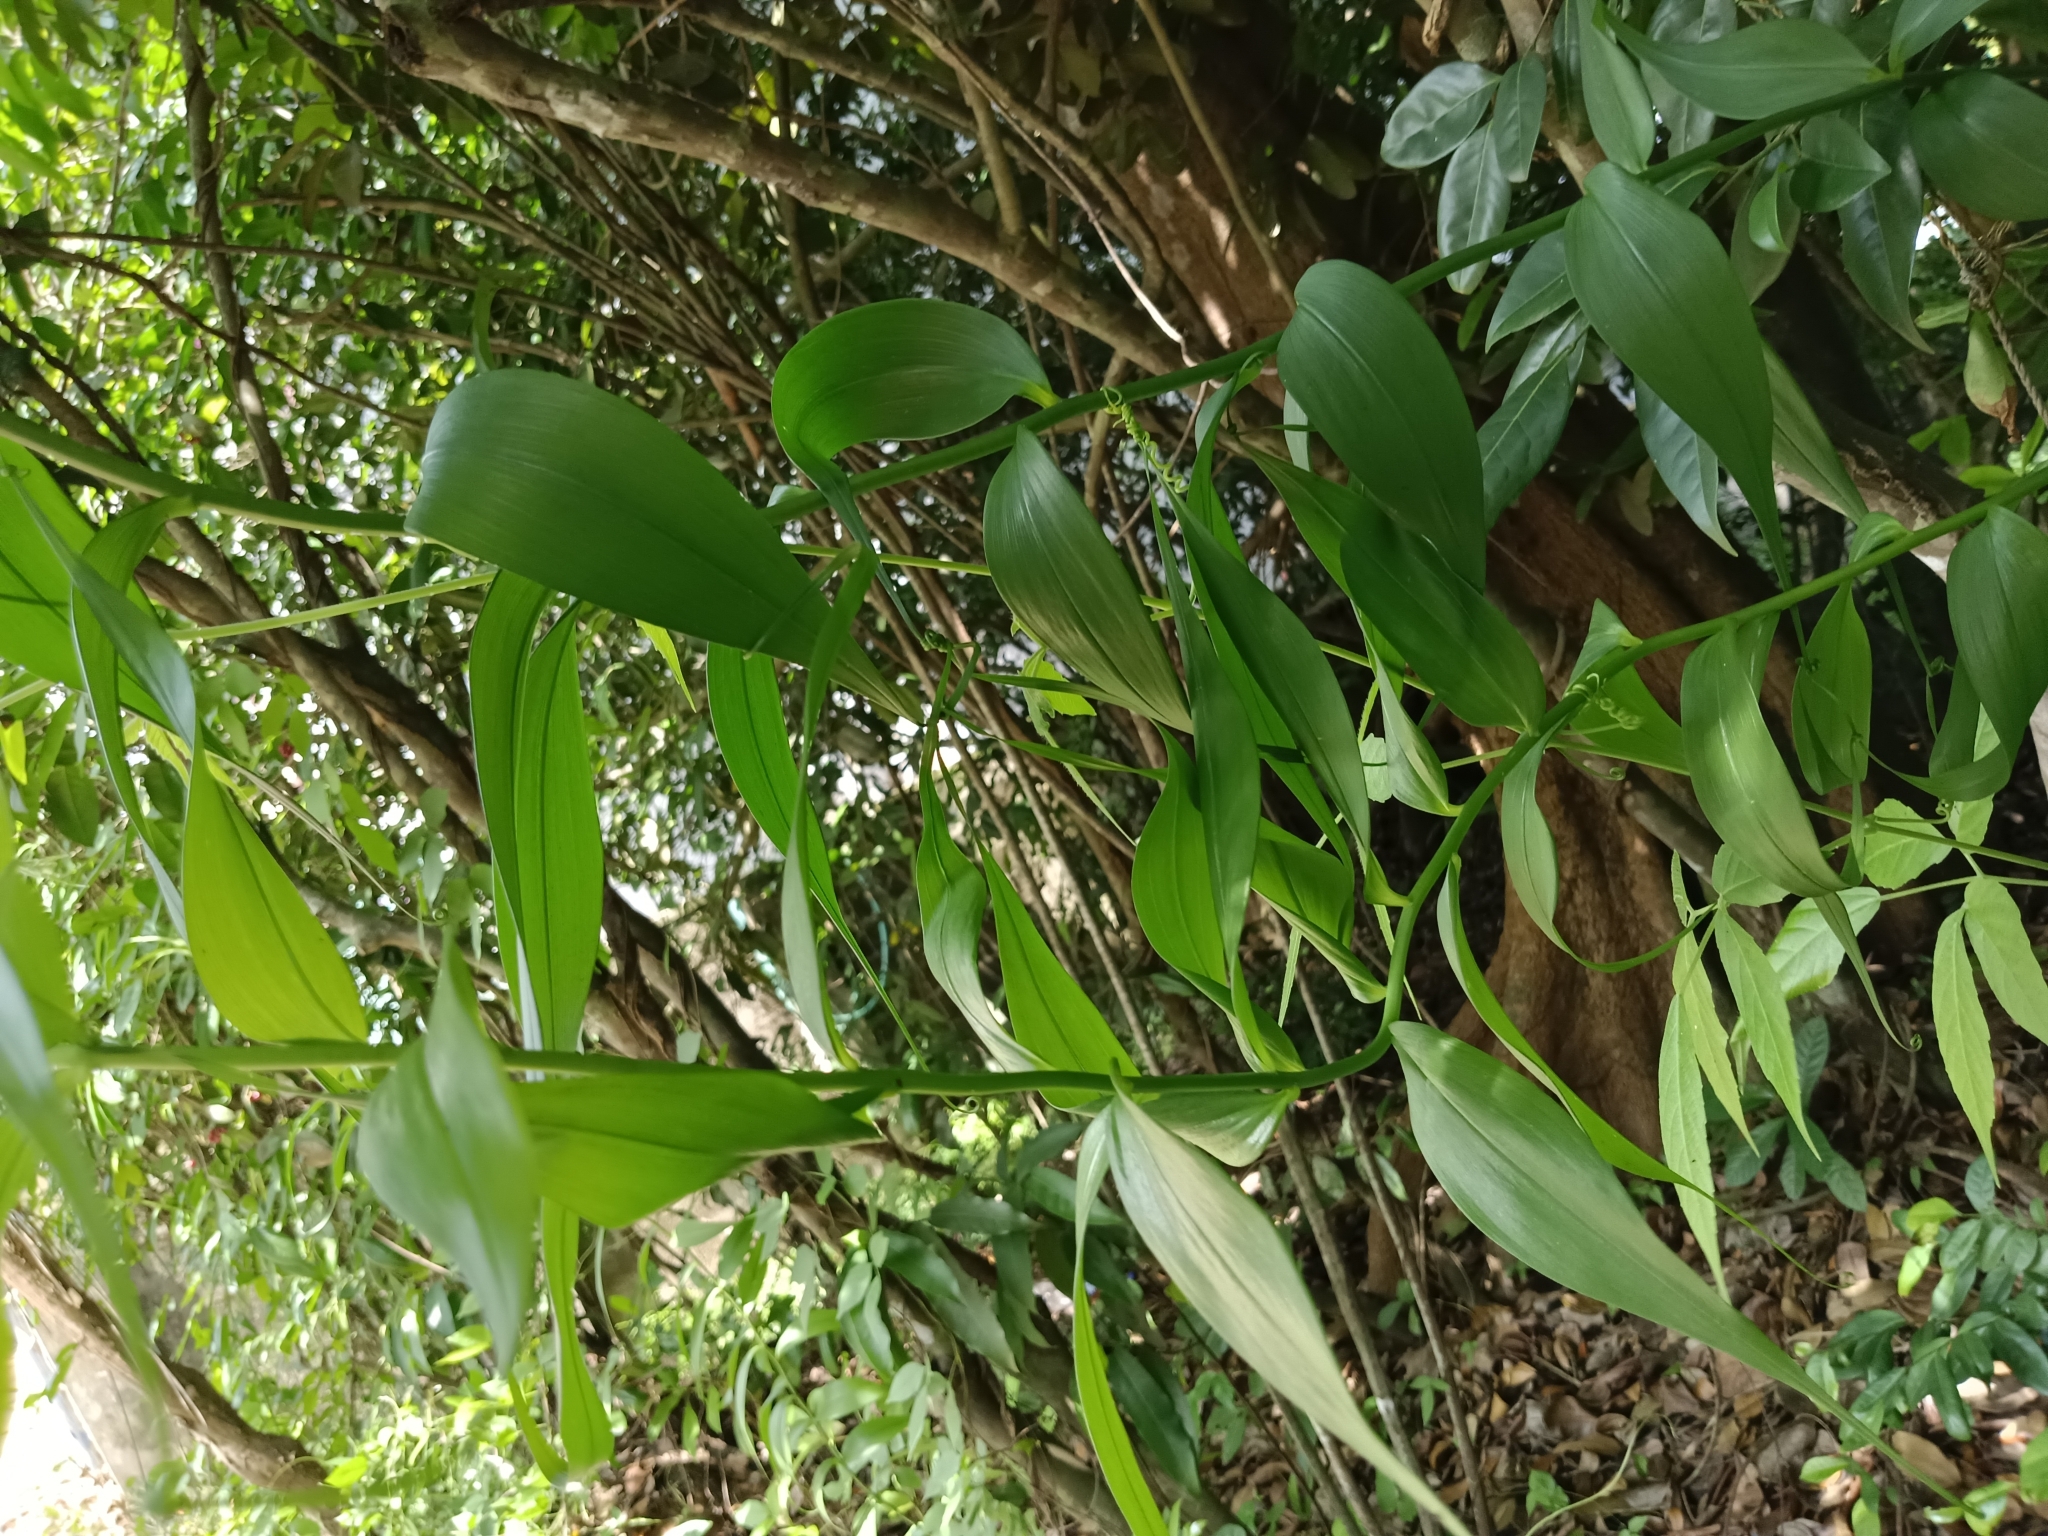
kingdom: Plantae
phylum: Tracheophyta
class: Liliopsida
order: Liliales
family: Colchicaceae
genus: Gloriosa
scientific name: Gloriosa superba
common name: Flame lily
